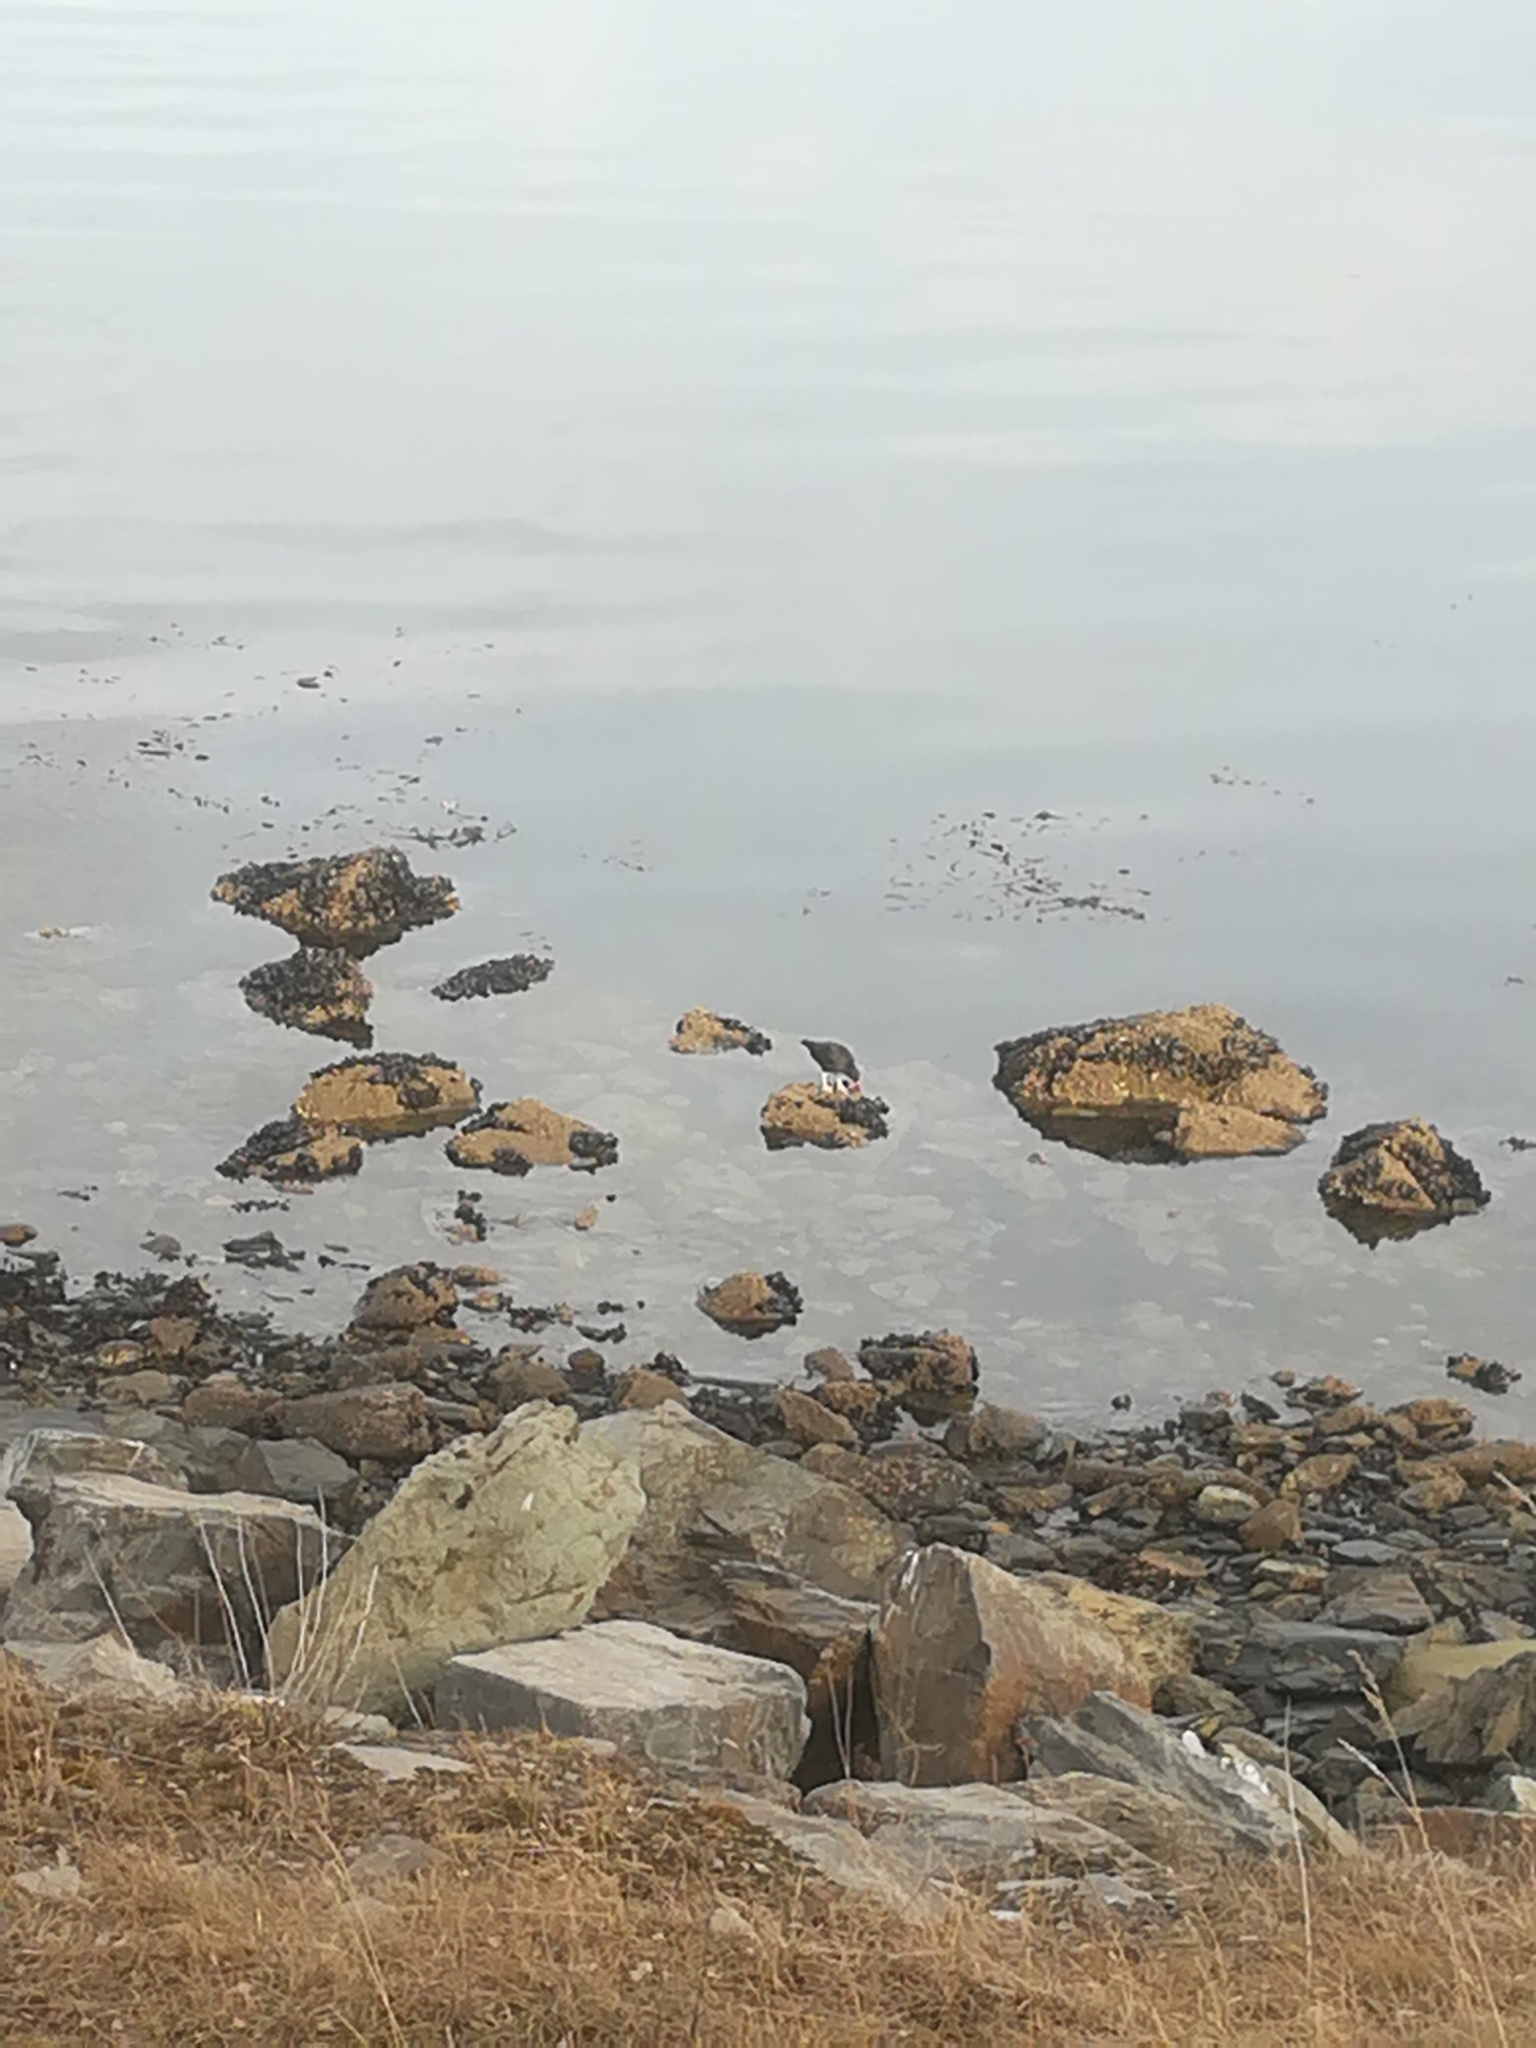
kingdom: Animalia
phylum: Chordata
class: Aves
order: Charadriiformes
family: Haematopodidae
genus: Haematopus
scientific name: Haematopus ater
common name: Blackish oystercatcher
